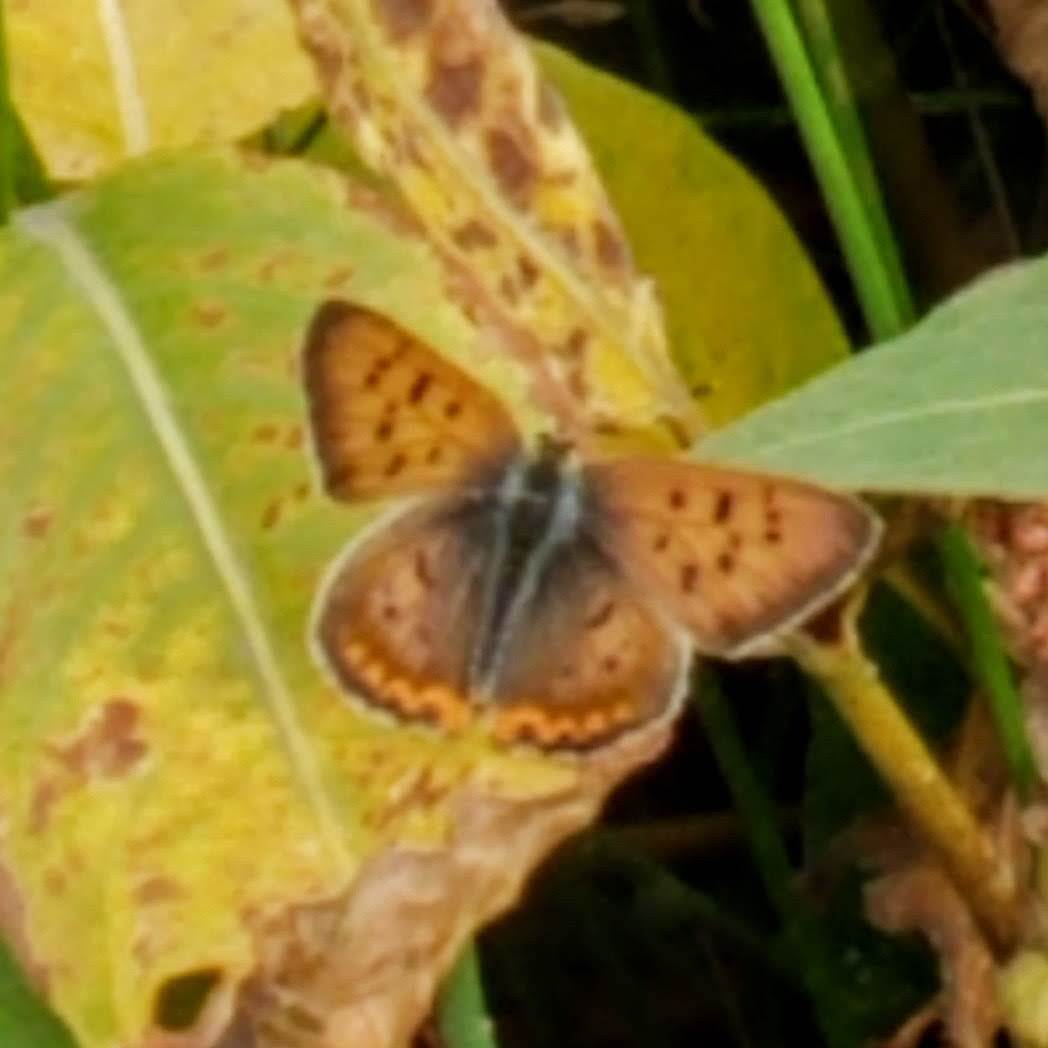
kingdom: Animalia
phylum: Arthropoda
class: Insecta
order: Lepidoptera
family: Lycaenidae
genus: Tharsalea
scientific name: Tharsalea helloides
